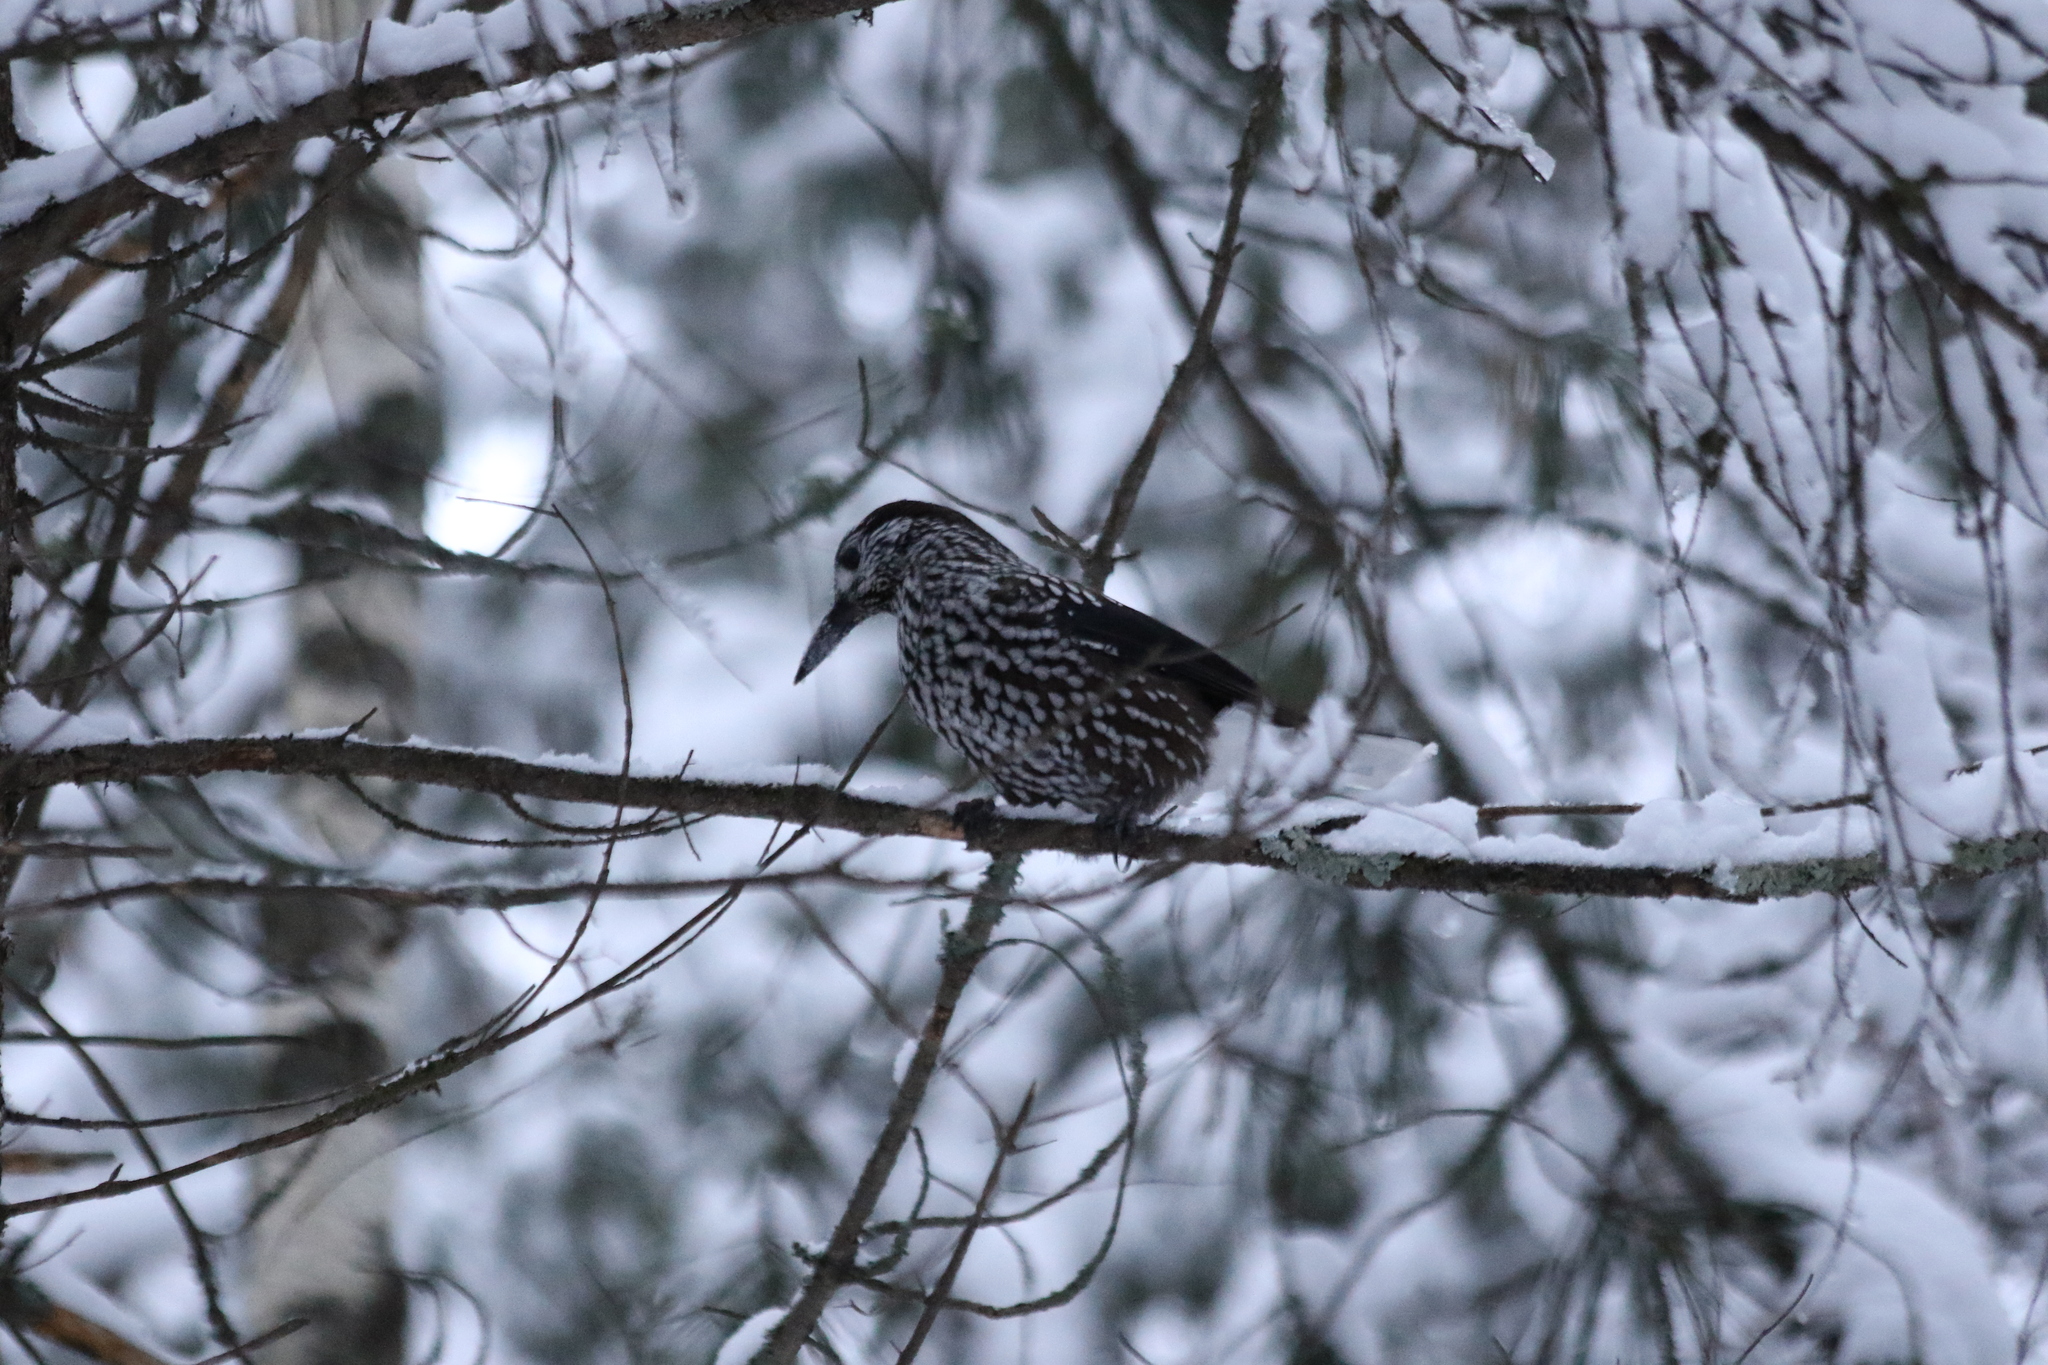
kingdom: Animalia
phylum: Chordata
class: Aves
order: Passeriformes
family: Corvidae
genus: Nucifraga
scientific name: Nucifraga caryocatactes
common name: Spotted nutcracker
